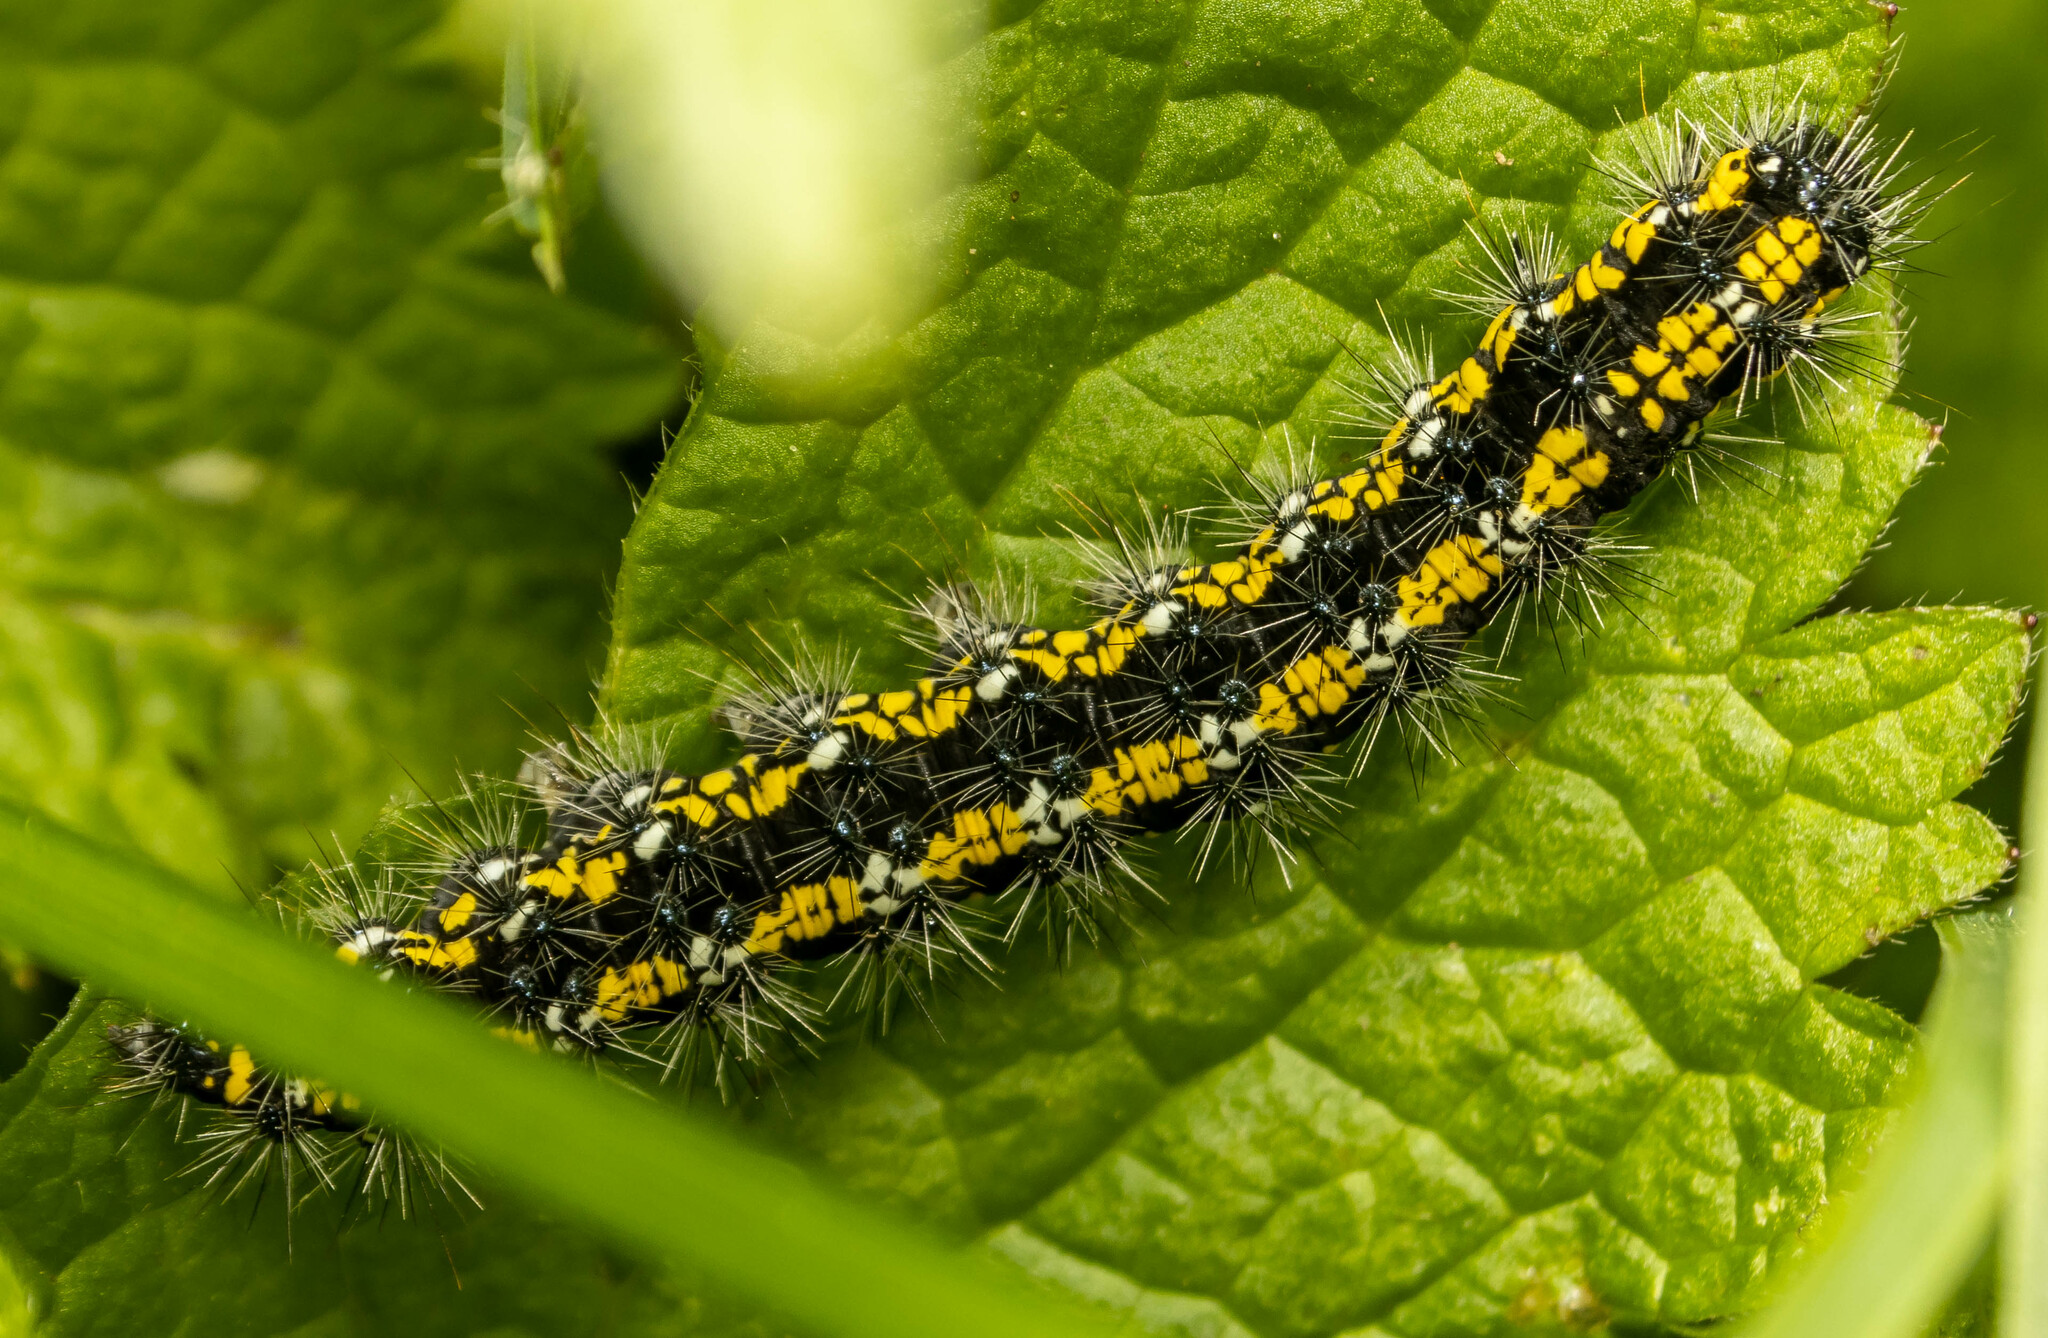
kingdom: Animalia
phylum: Arthropoda
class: Insecta
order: Lepidoptera
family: Erebidae
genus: Callimorpha
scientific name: Callimorpha dominula
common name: Scarlet tiger
